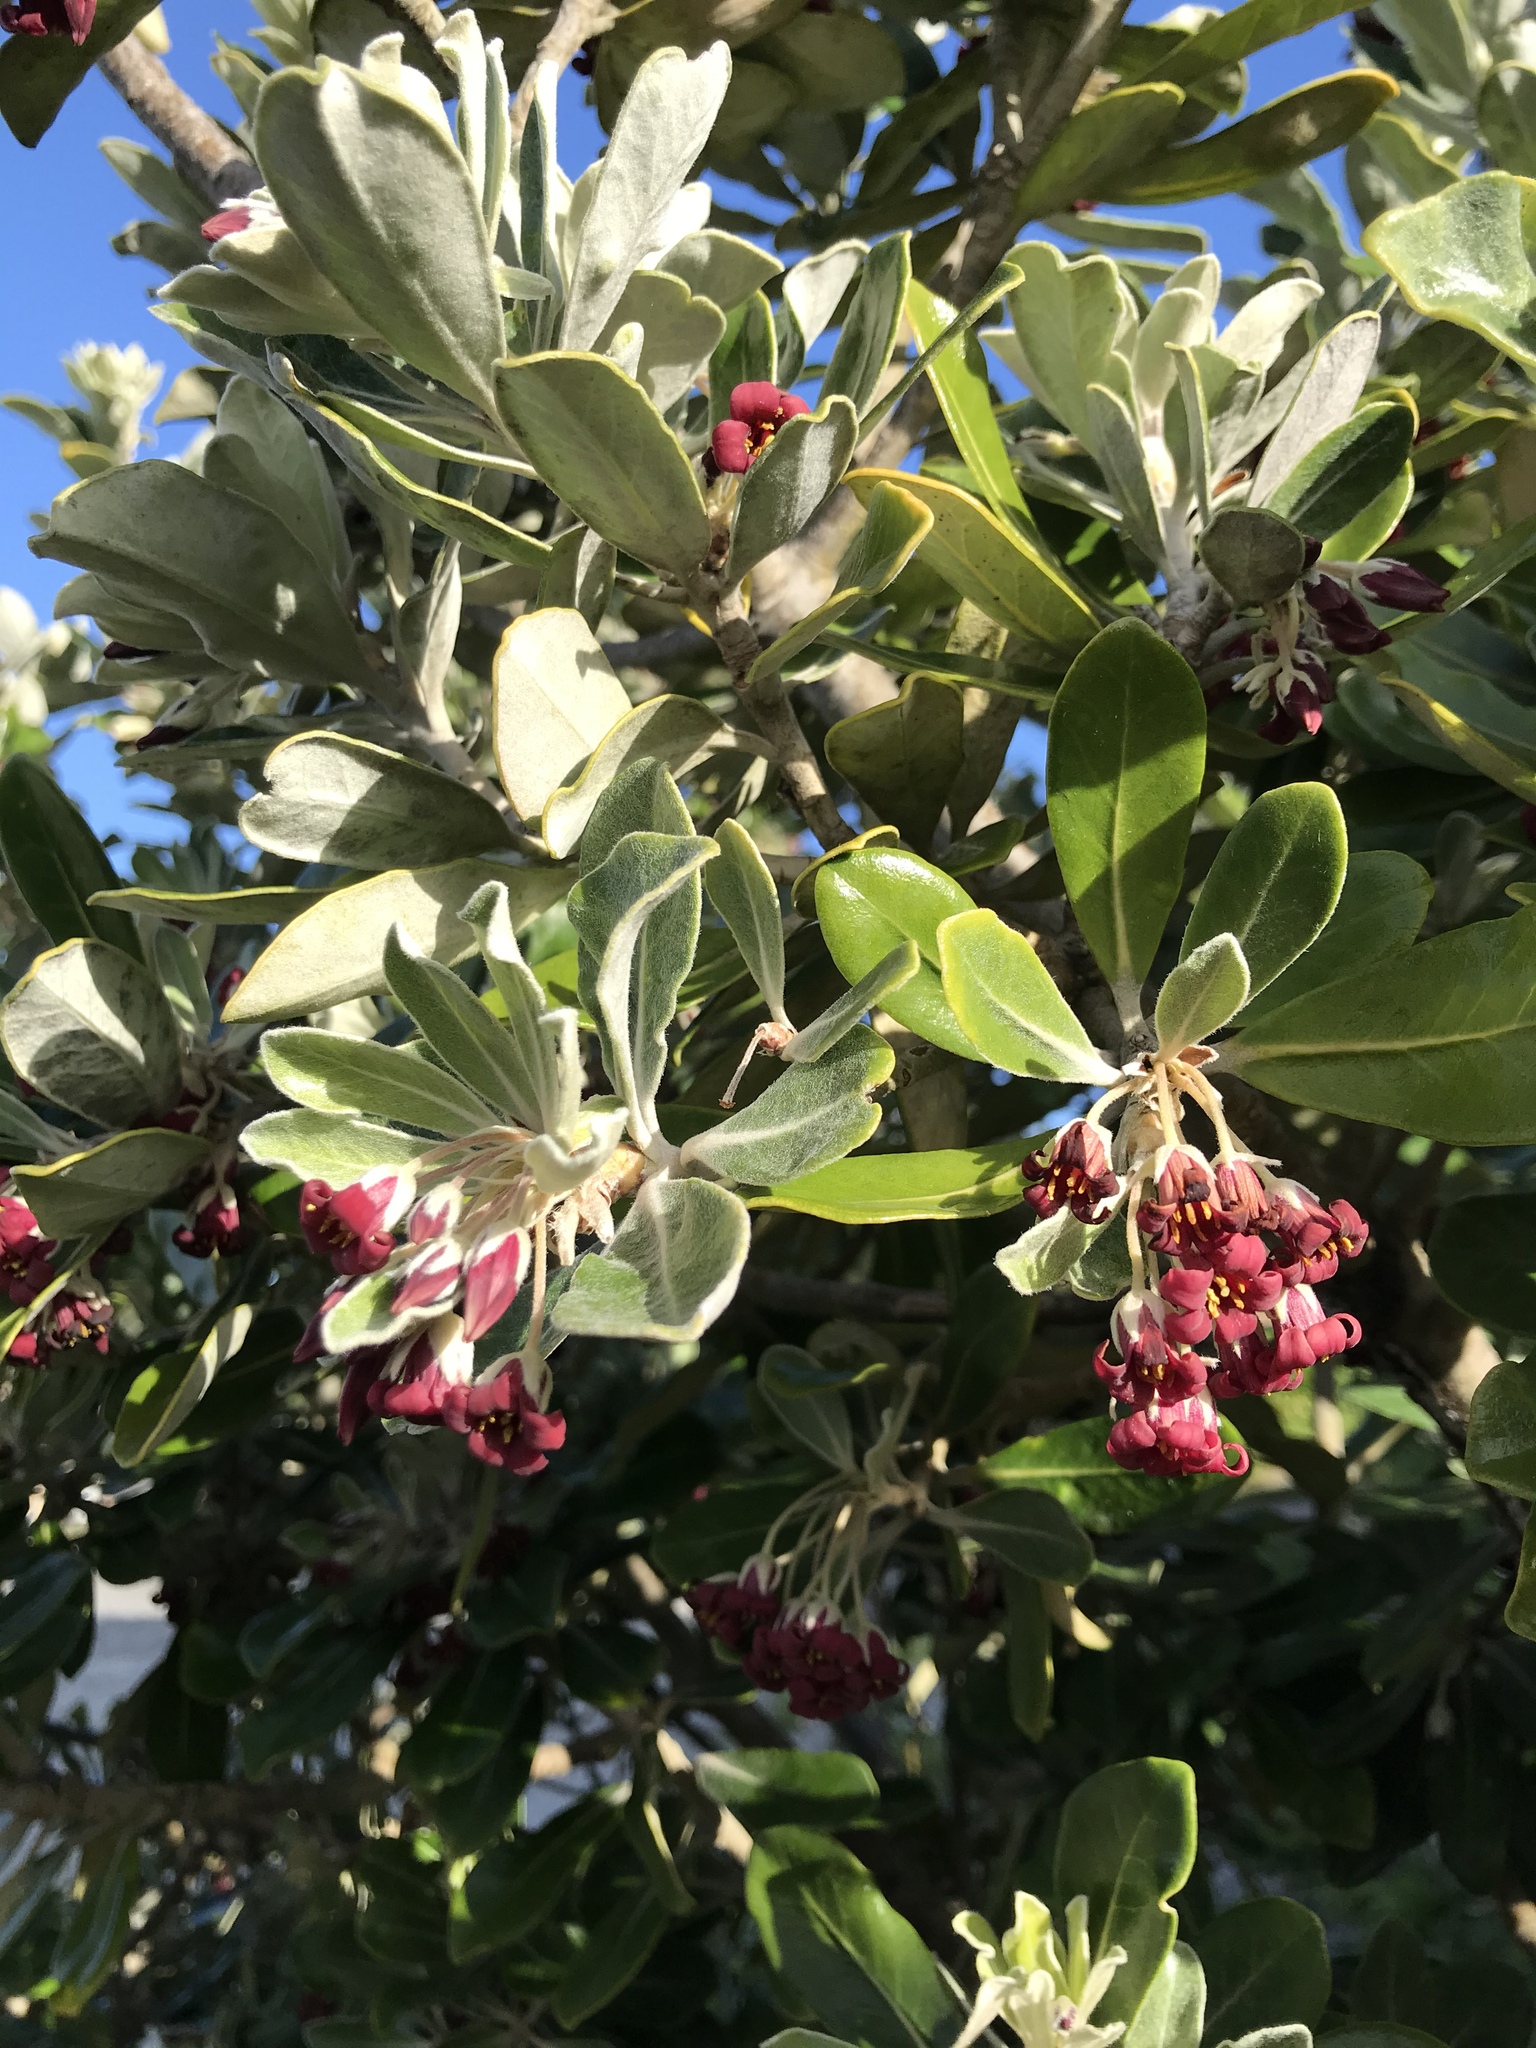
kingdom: Plantae
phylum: Tracheophyta
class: Magnoliopsida
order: Apiales
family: Pittosporaceae
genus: Pittosporum
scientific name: Pittosporum crassifolium
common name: Karo
